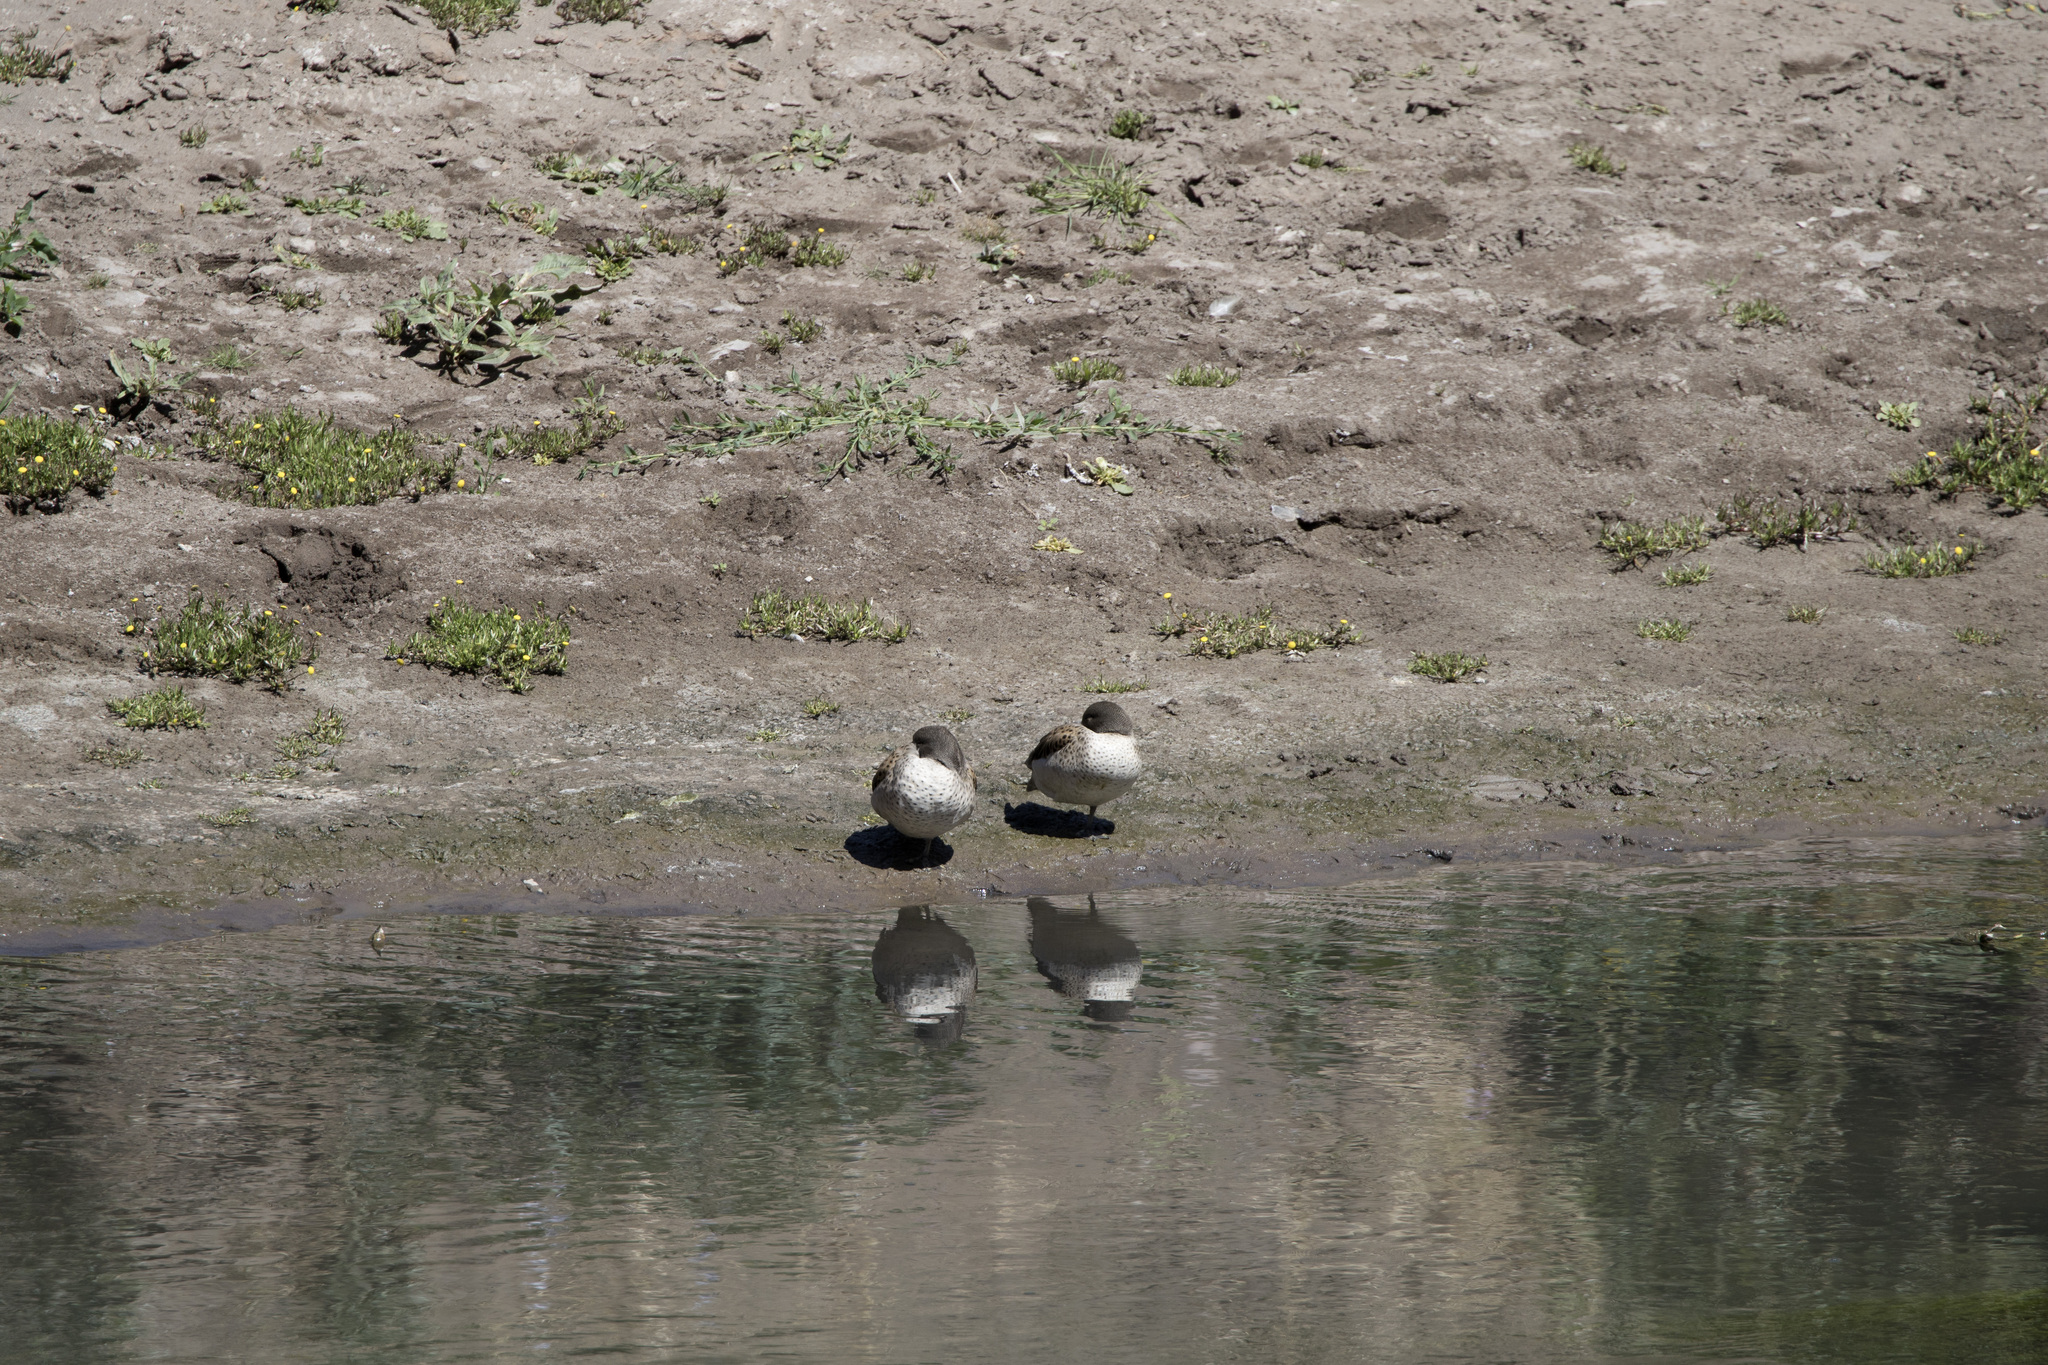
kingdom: Animalia
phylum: Chordata
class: Aves
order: Anseriformes
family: Anatidae
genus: Anas
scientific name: Anas flavirostris
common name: Yellow-billed teal
